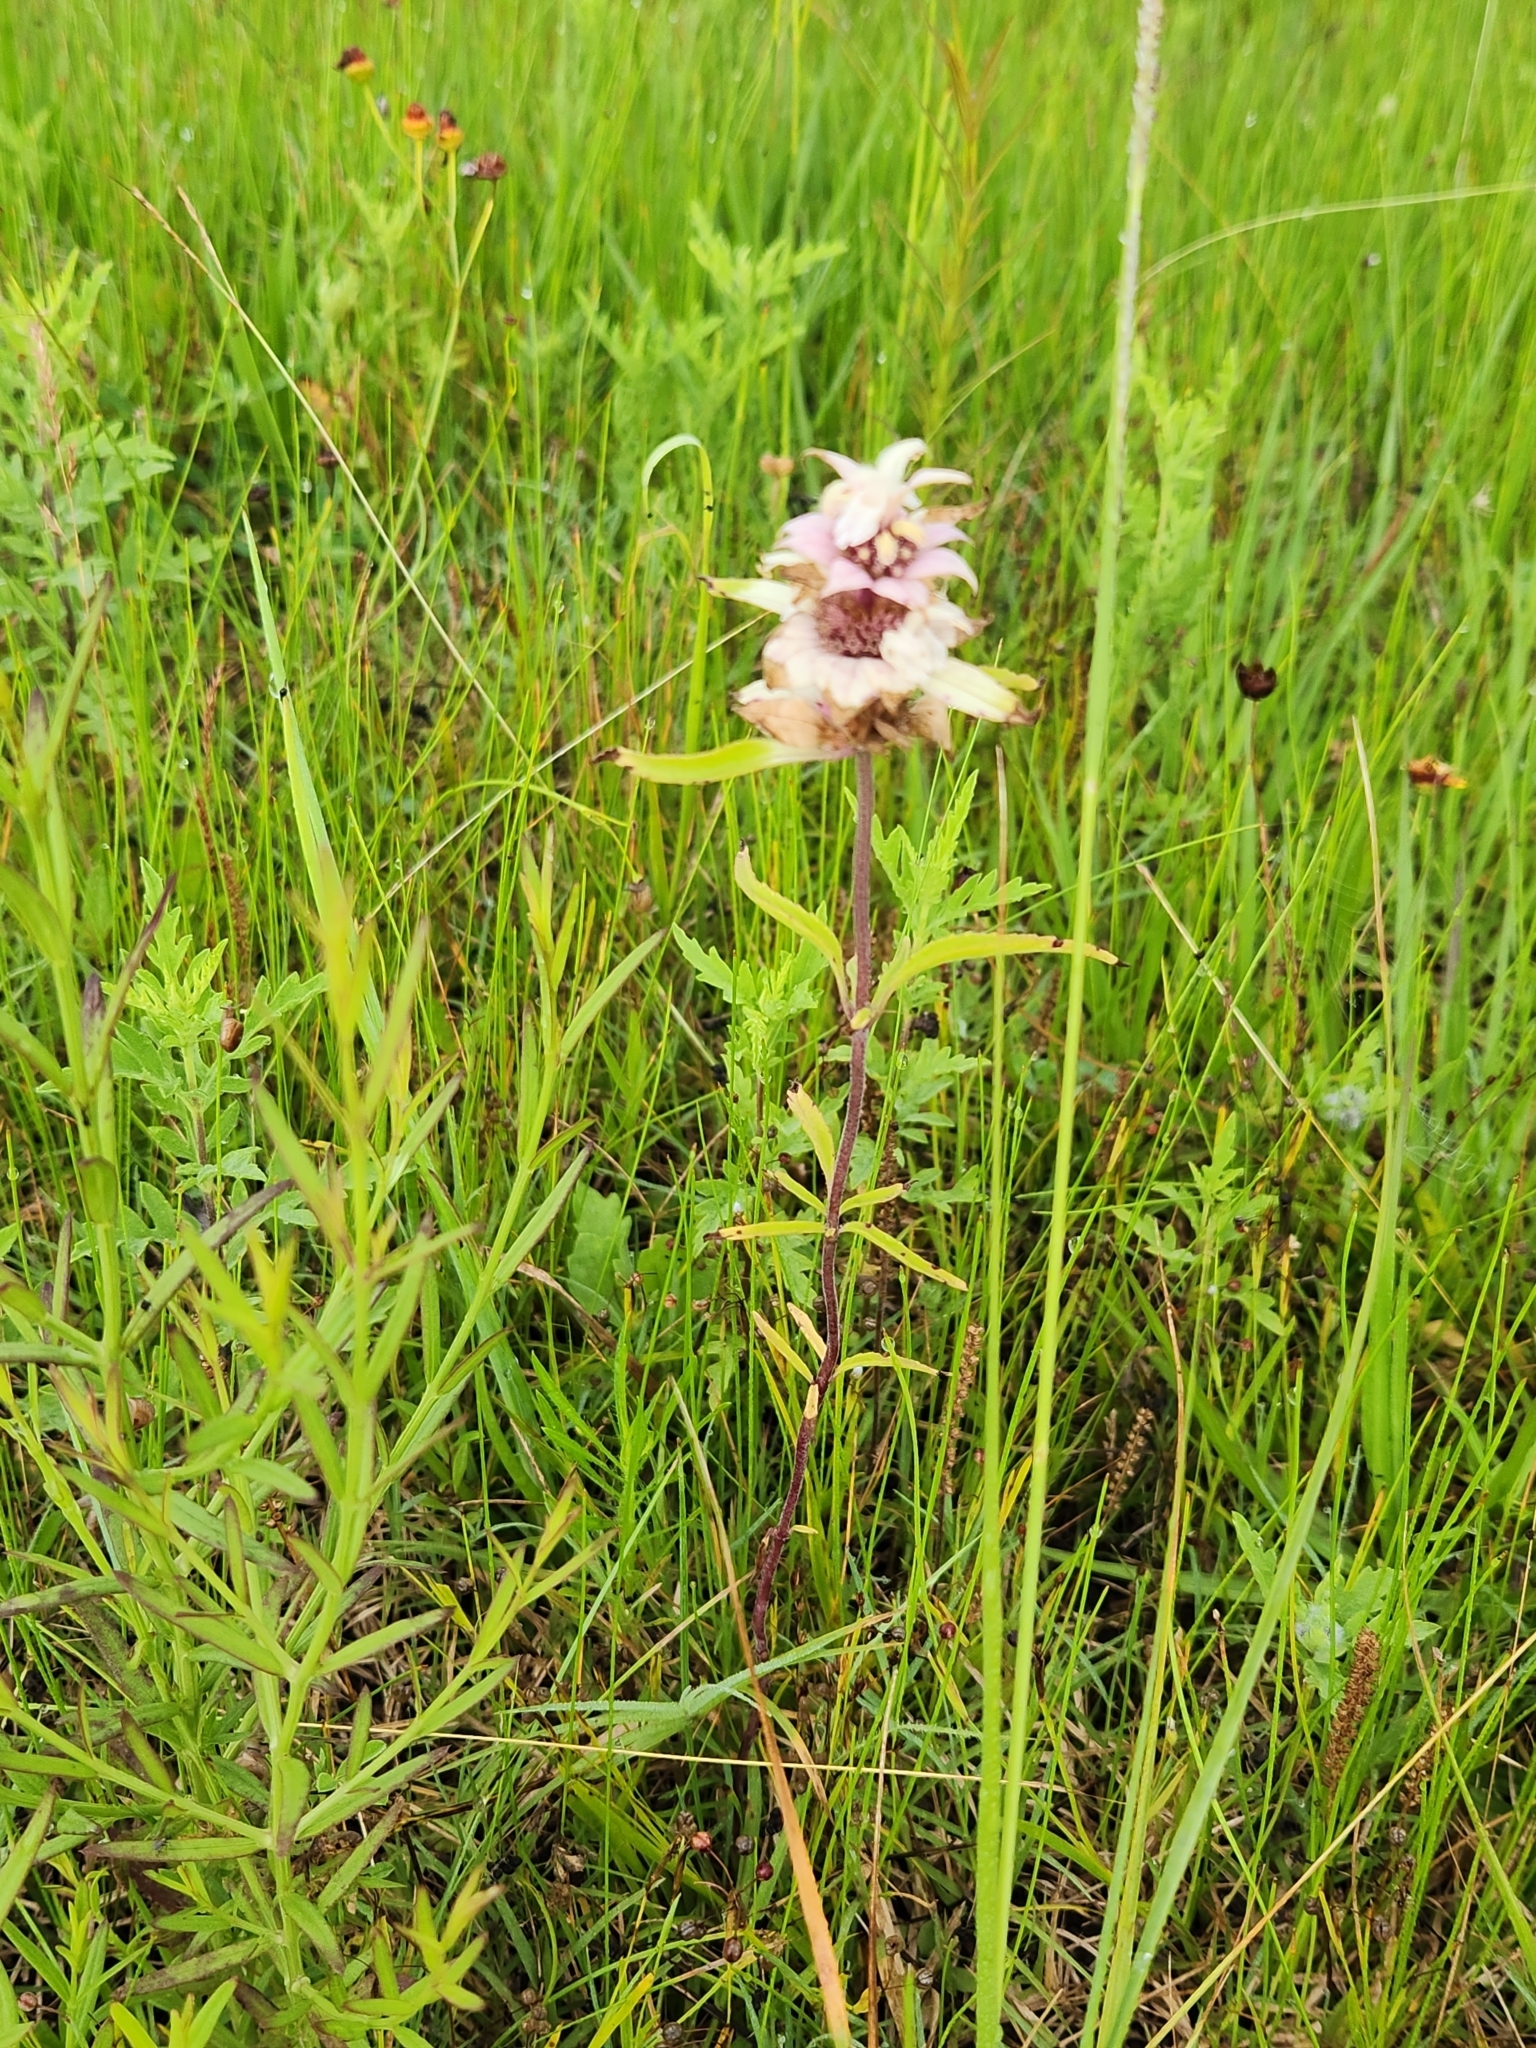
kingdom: Plantae
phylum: Tracheophyta
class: Magnoliopsida
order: Lamiales
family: Lamiaceae
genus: Monarda
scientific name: Monarda punctata
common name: Dotted monarda
